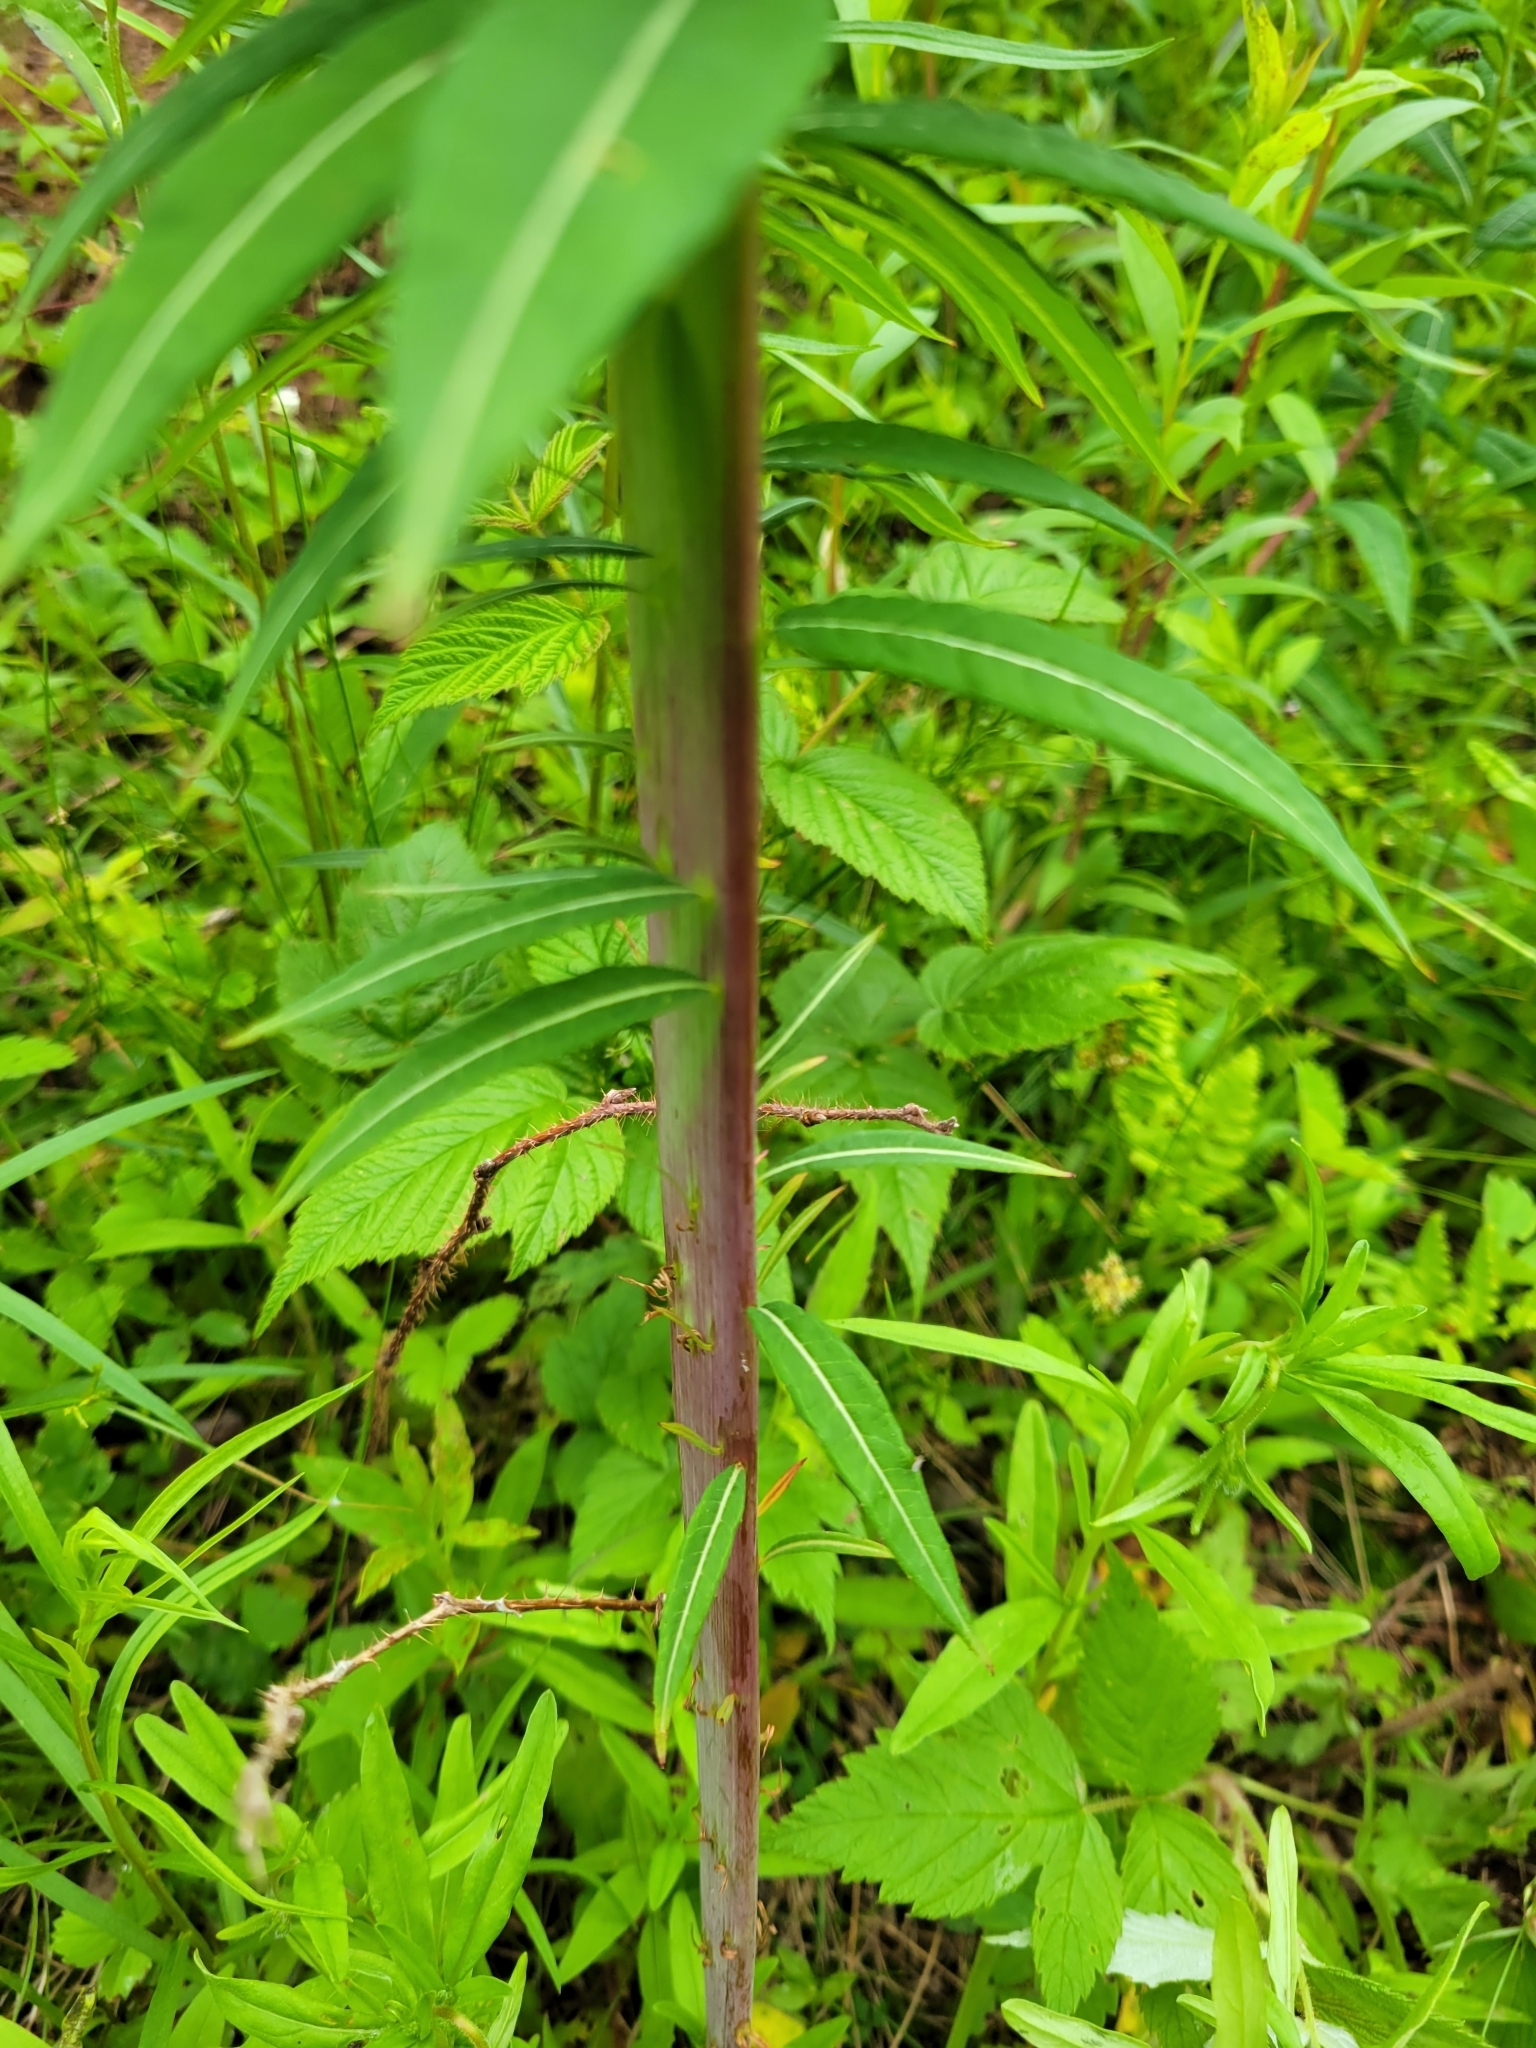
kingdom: Plantae
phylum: Tracheophyta
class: Magnoliopsida
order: Myrtales
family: Onagraceae
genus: Chamaenerion
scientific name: Chamaenerion angustifolium
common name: Fireweed
